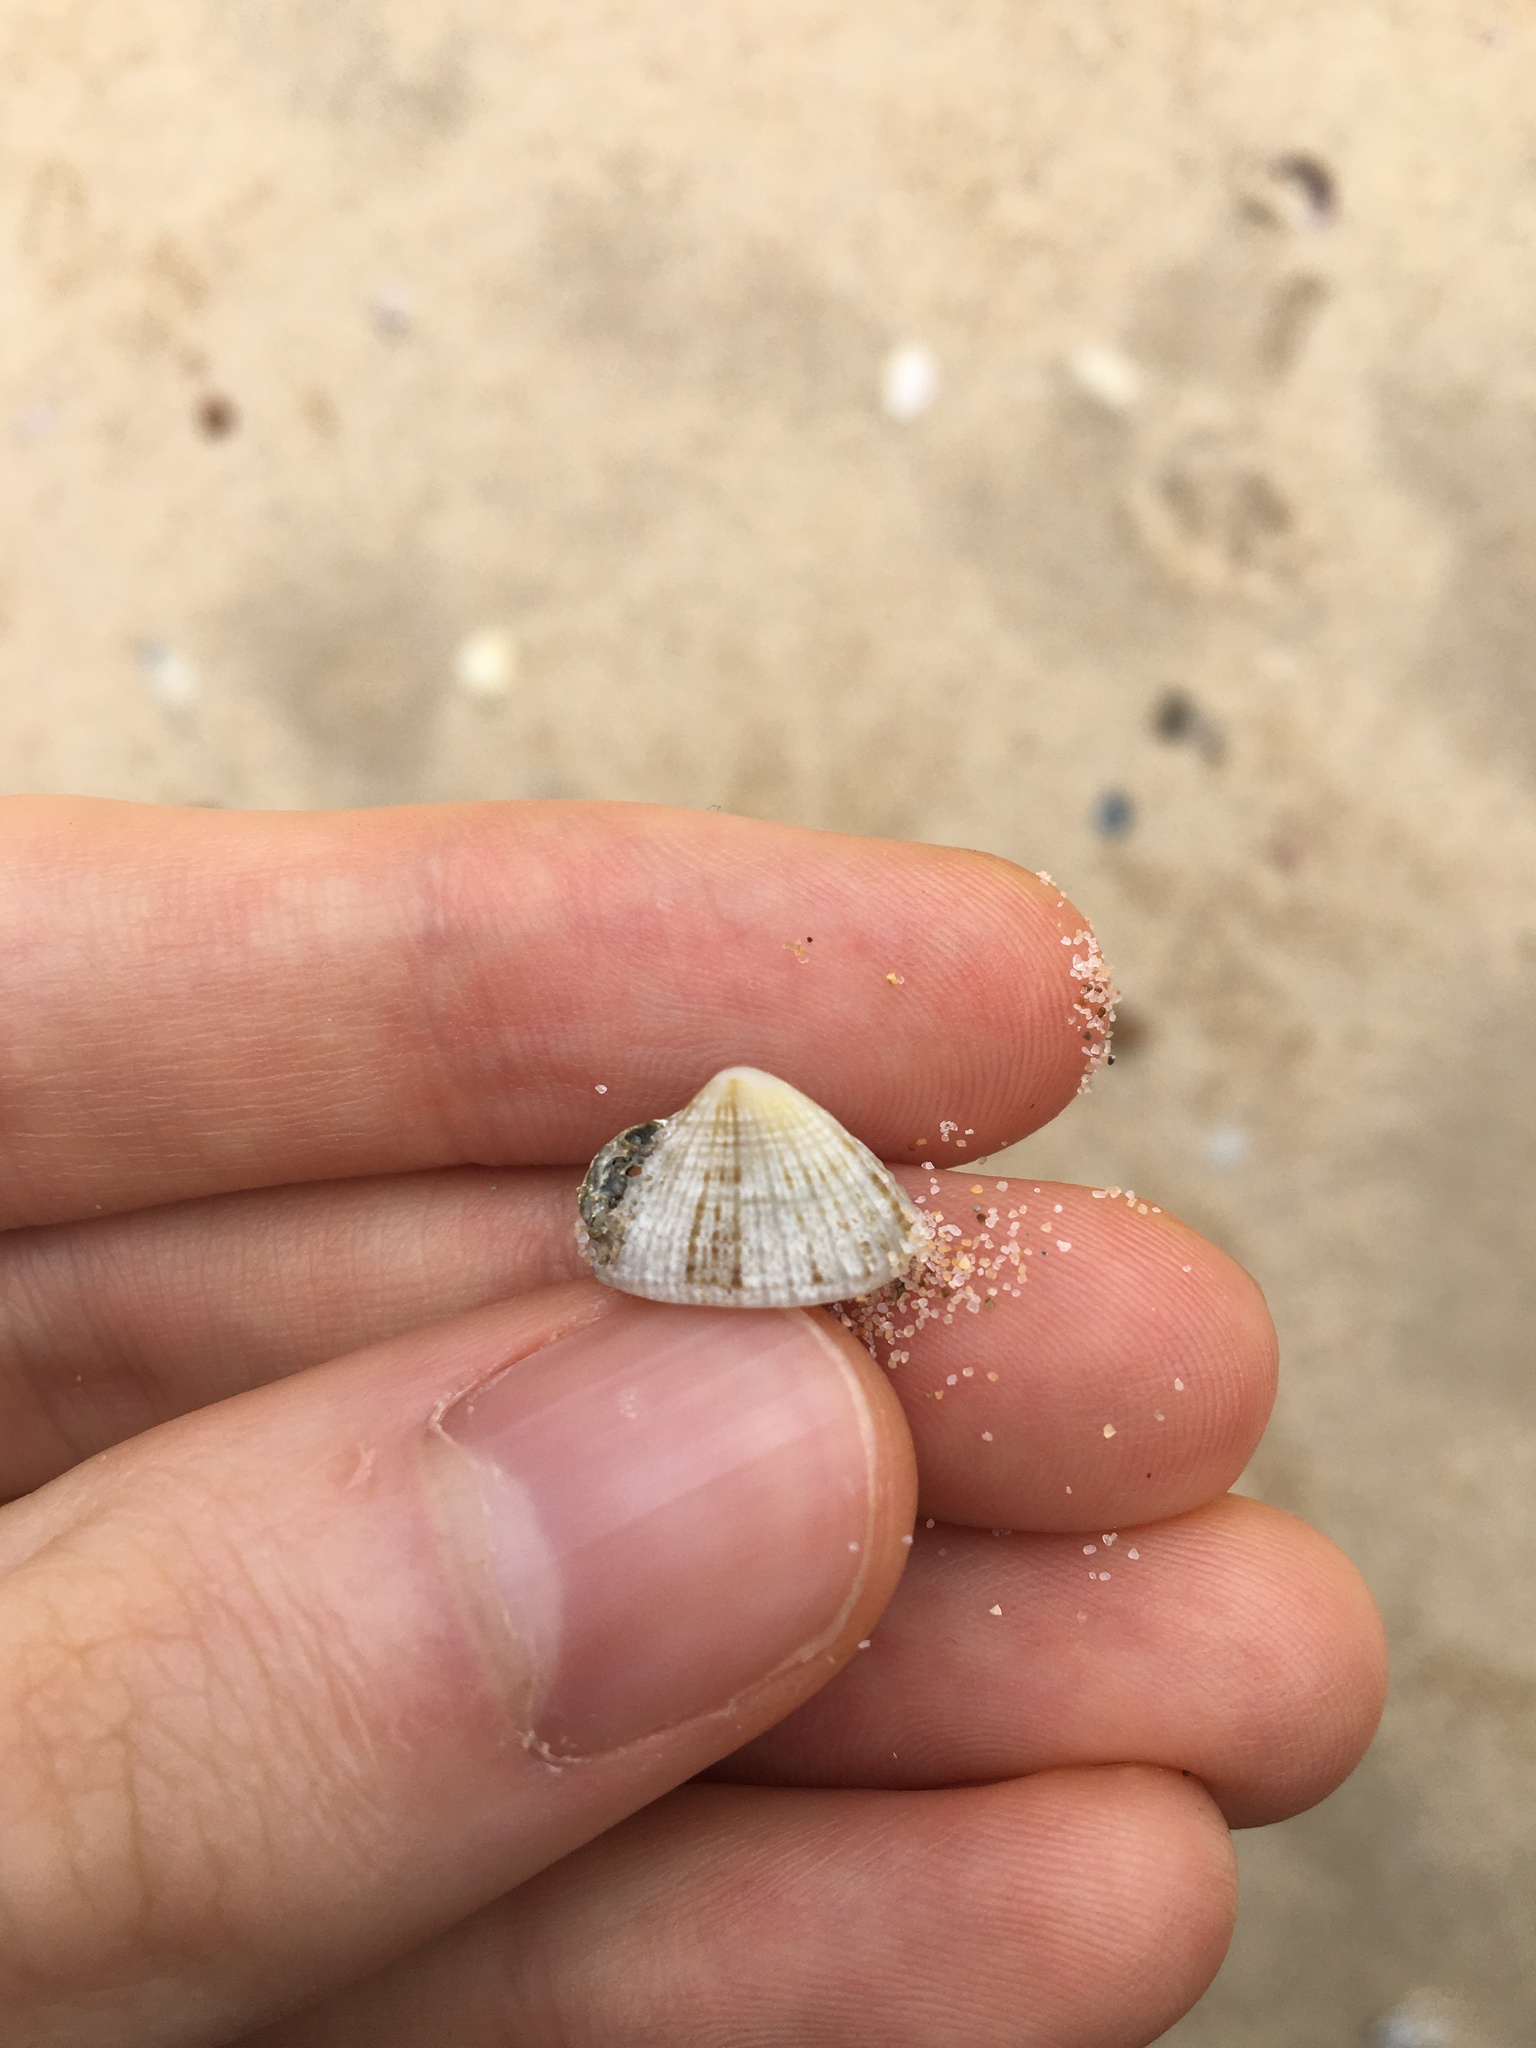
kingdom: Animalia
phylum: Mollusca
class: Gastropoda
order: Lepetellida
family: Fissurellidae
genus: Montfortula
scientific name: Montfortula rugosa
